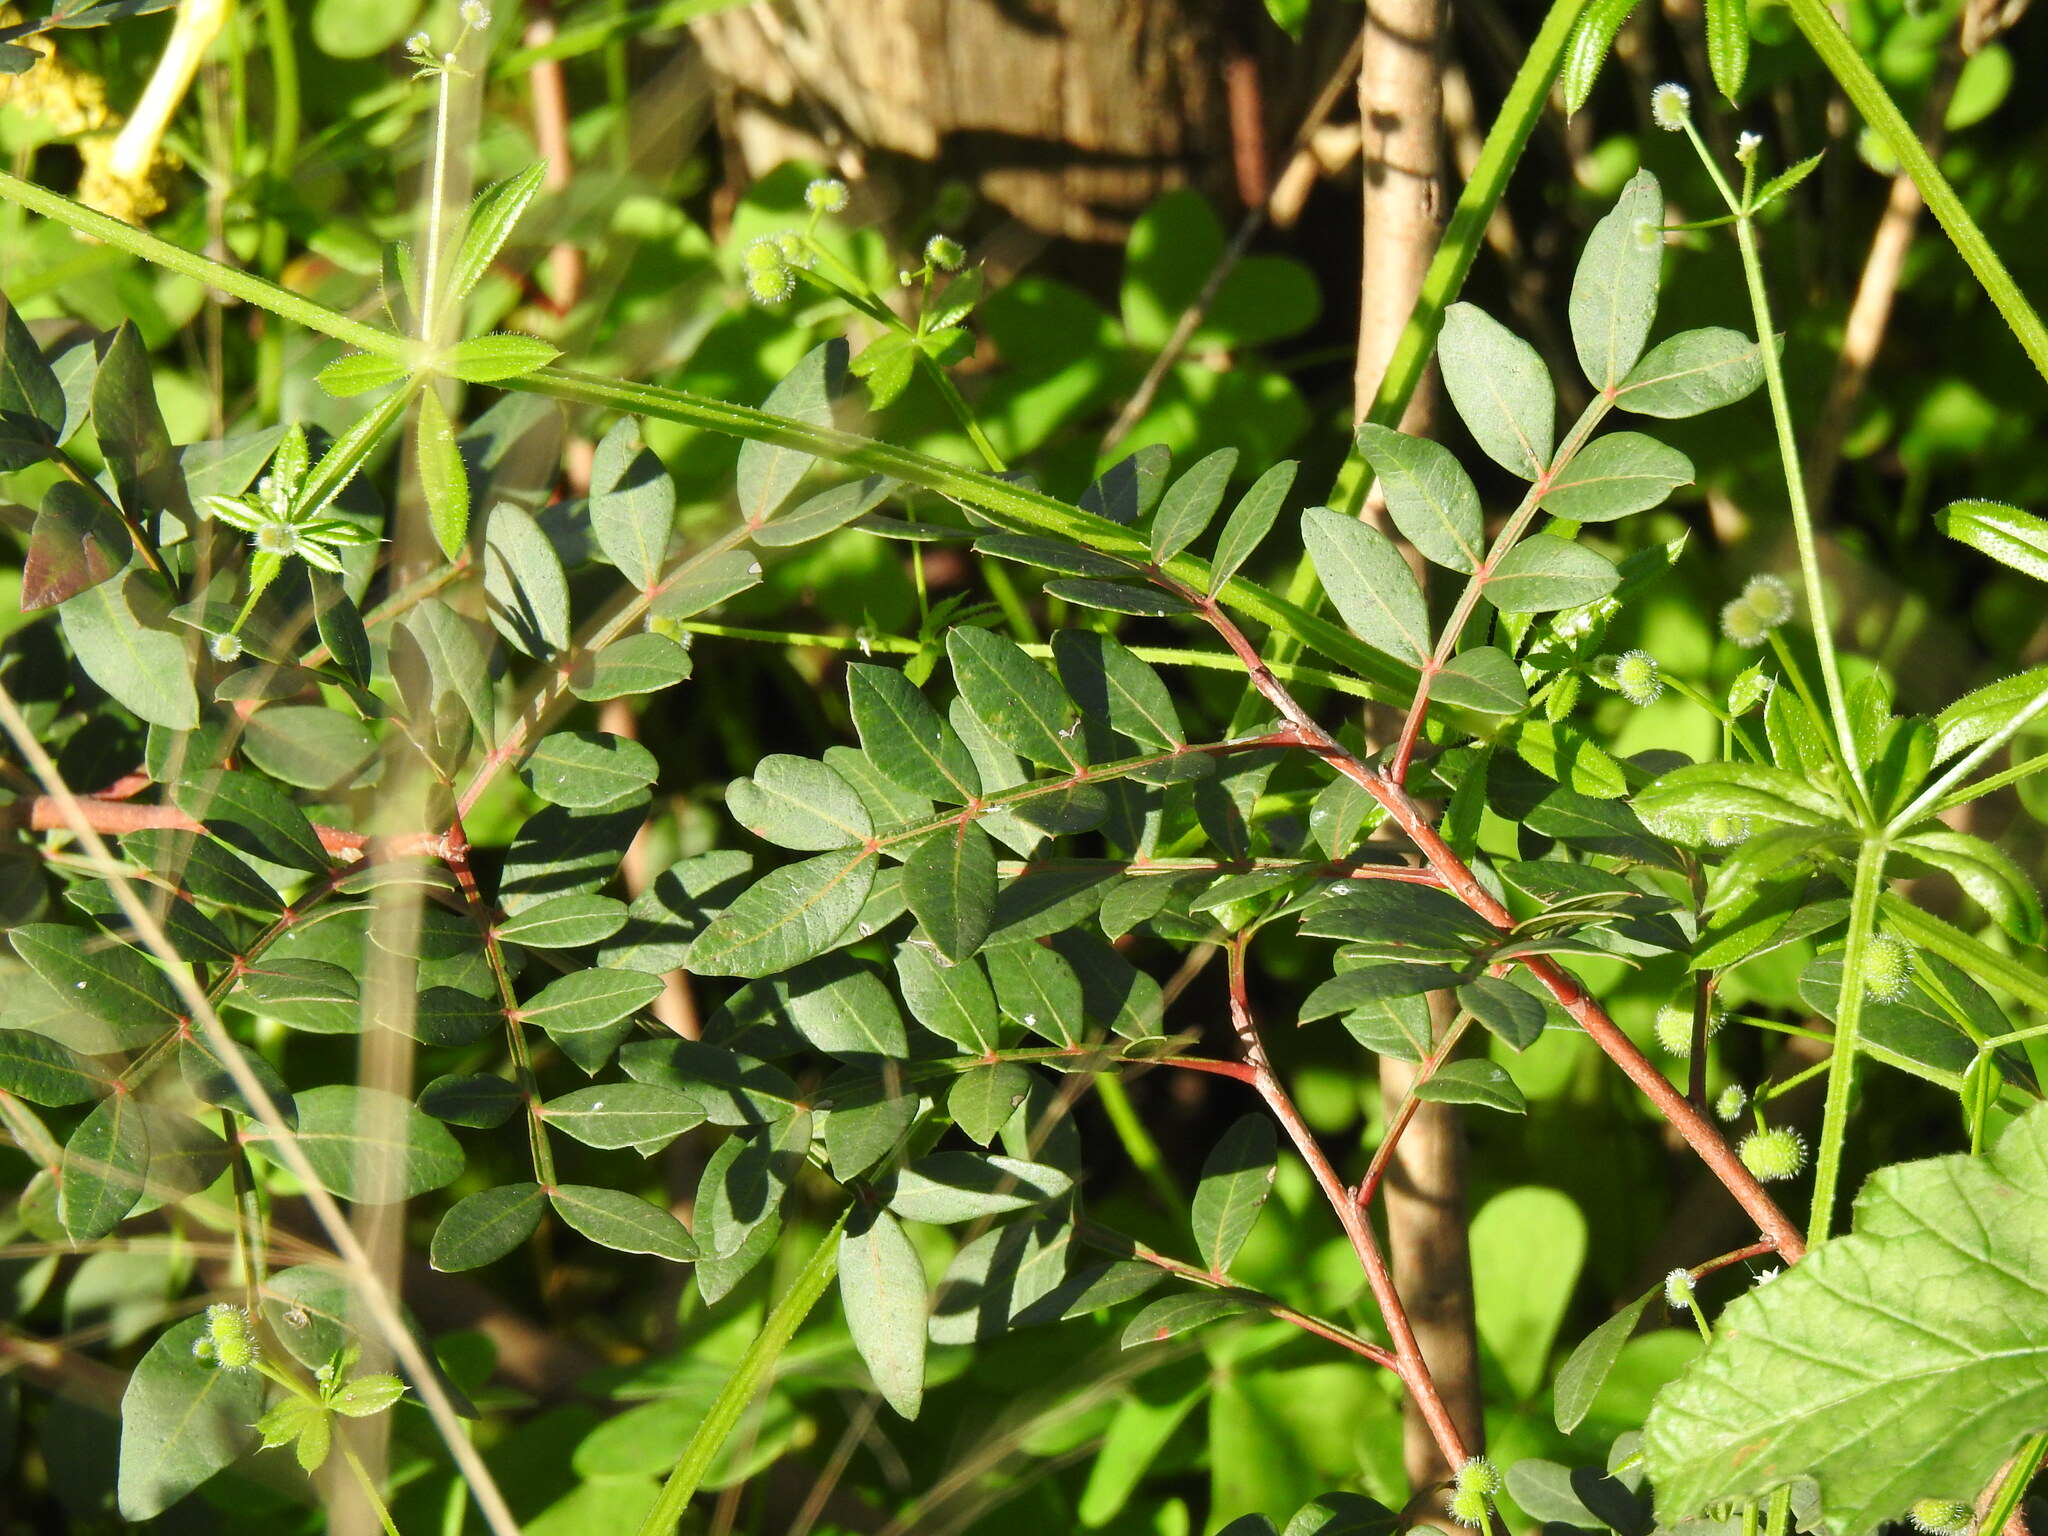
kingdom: Plantae
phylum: Tracheophyta
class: Magnoliopsida
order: Sapindales
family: Anacardiaceae
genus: Pistacia
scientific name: Pistacia lentiscus
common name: Lentisk
